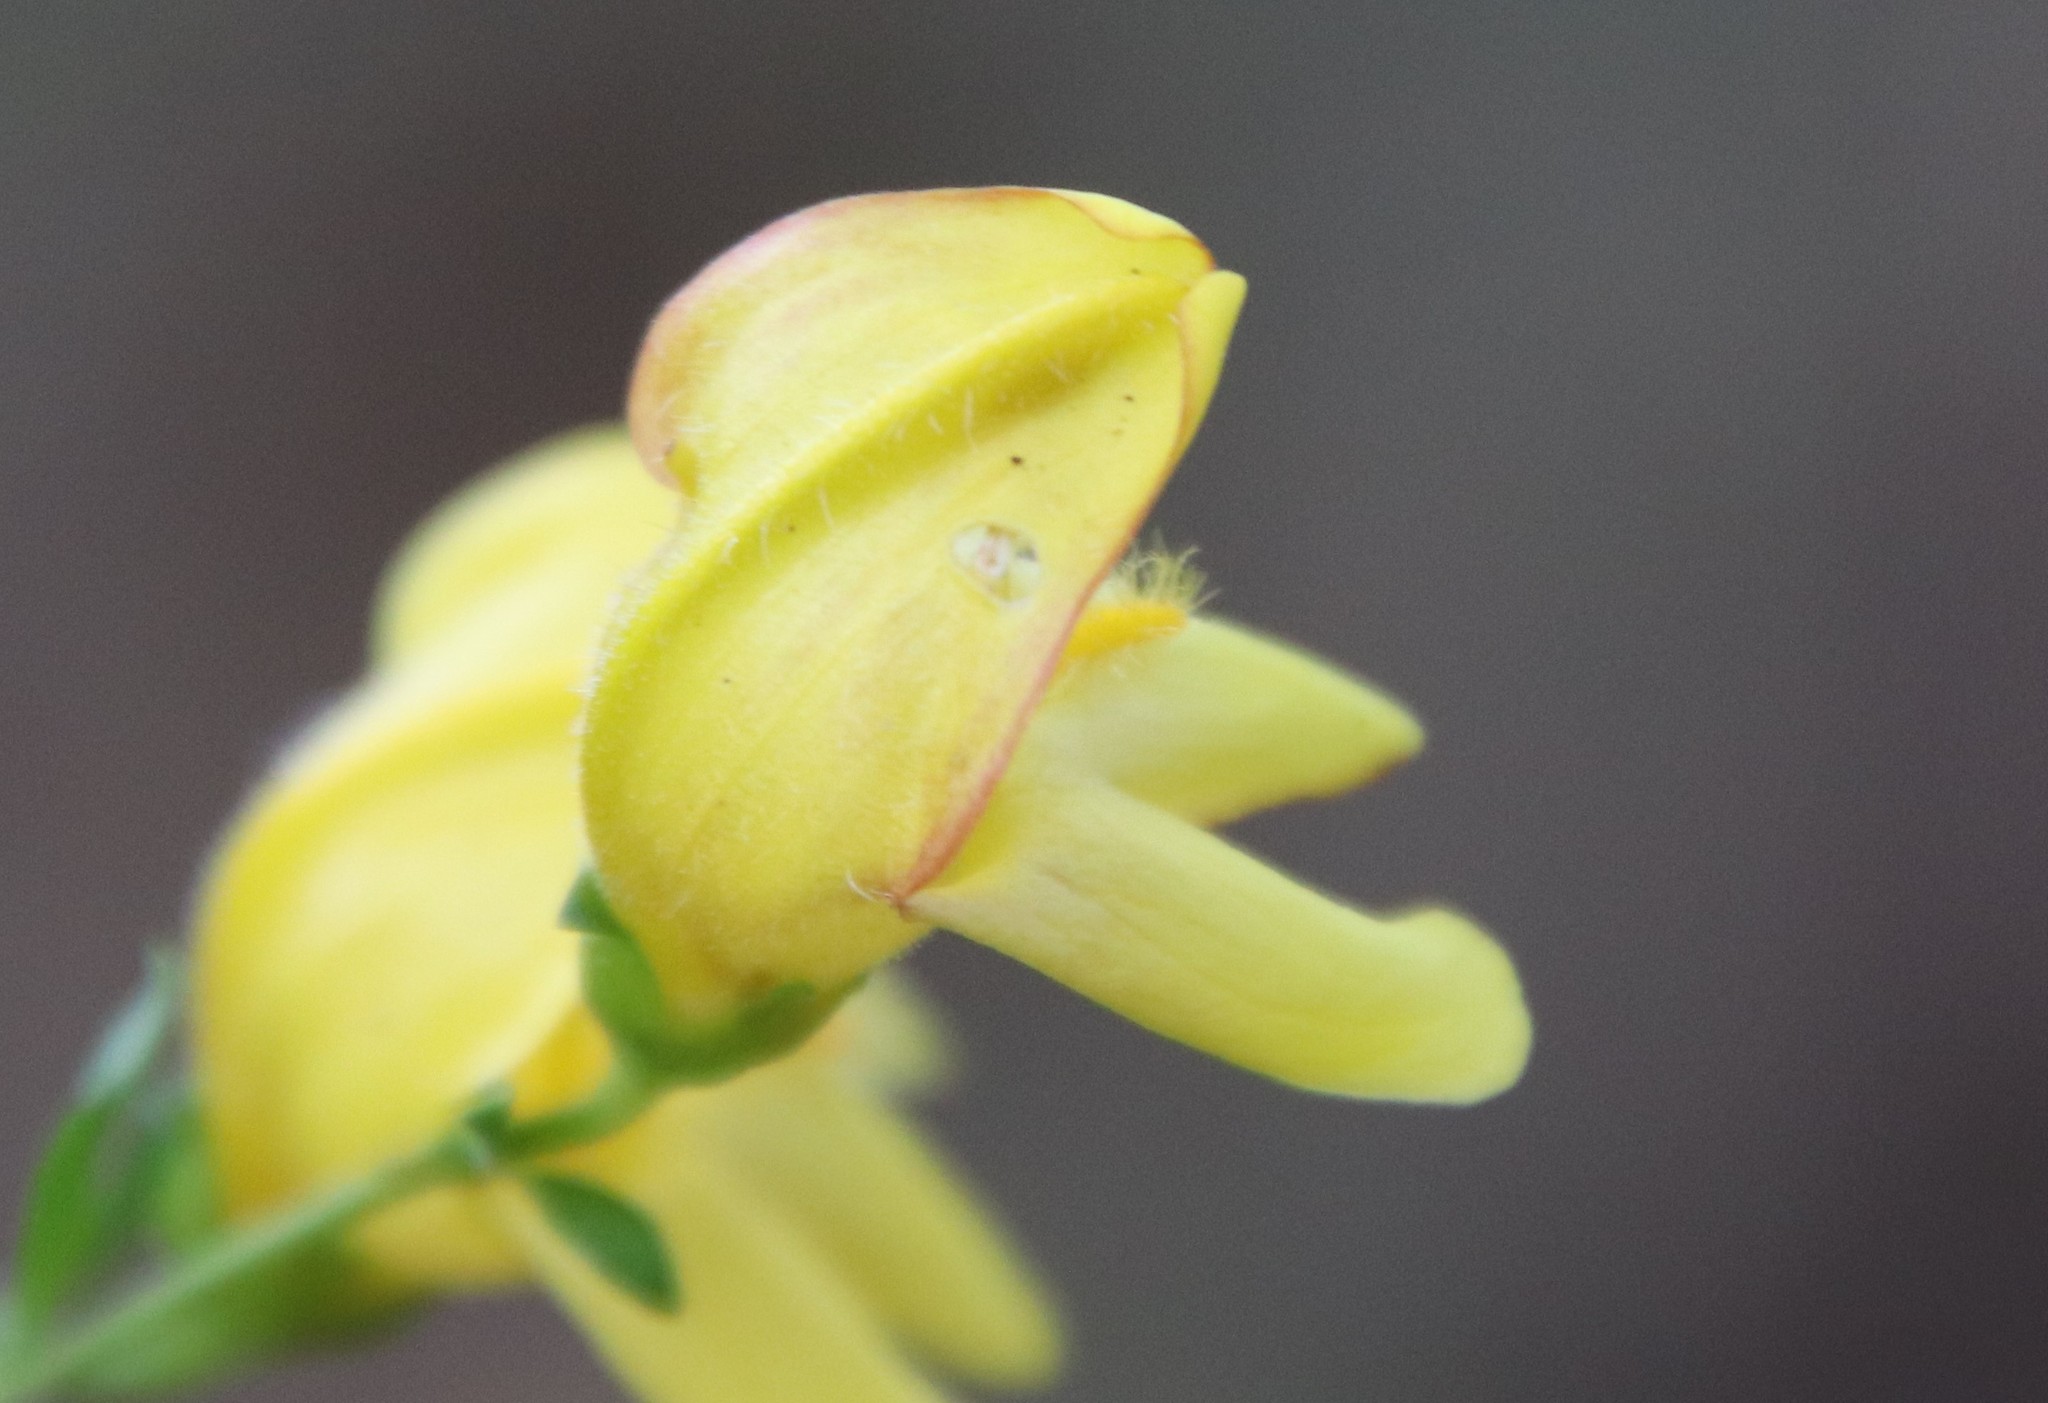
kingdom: Plantae
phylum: Tracheophyta
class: Magnoliopsida
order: Lamiales
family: Plantaginaceae
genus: Keckiella
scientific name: Keckiella antirrhinoides
